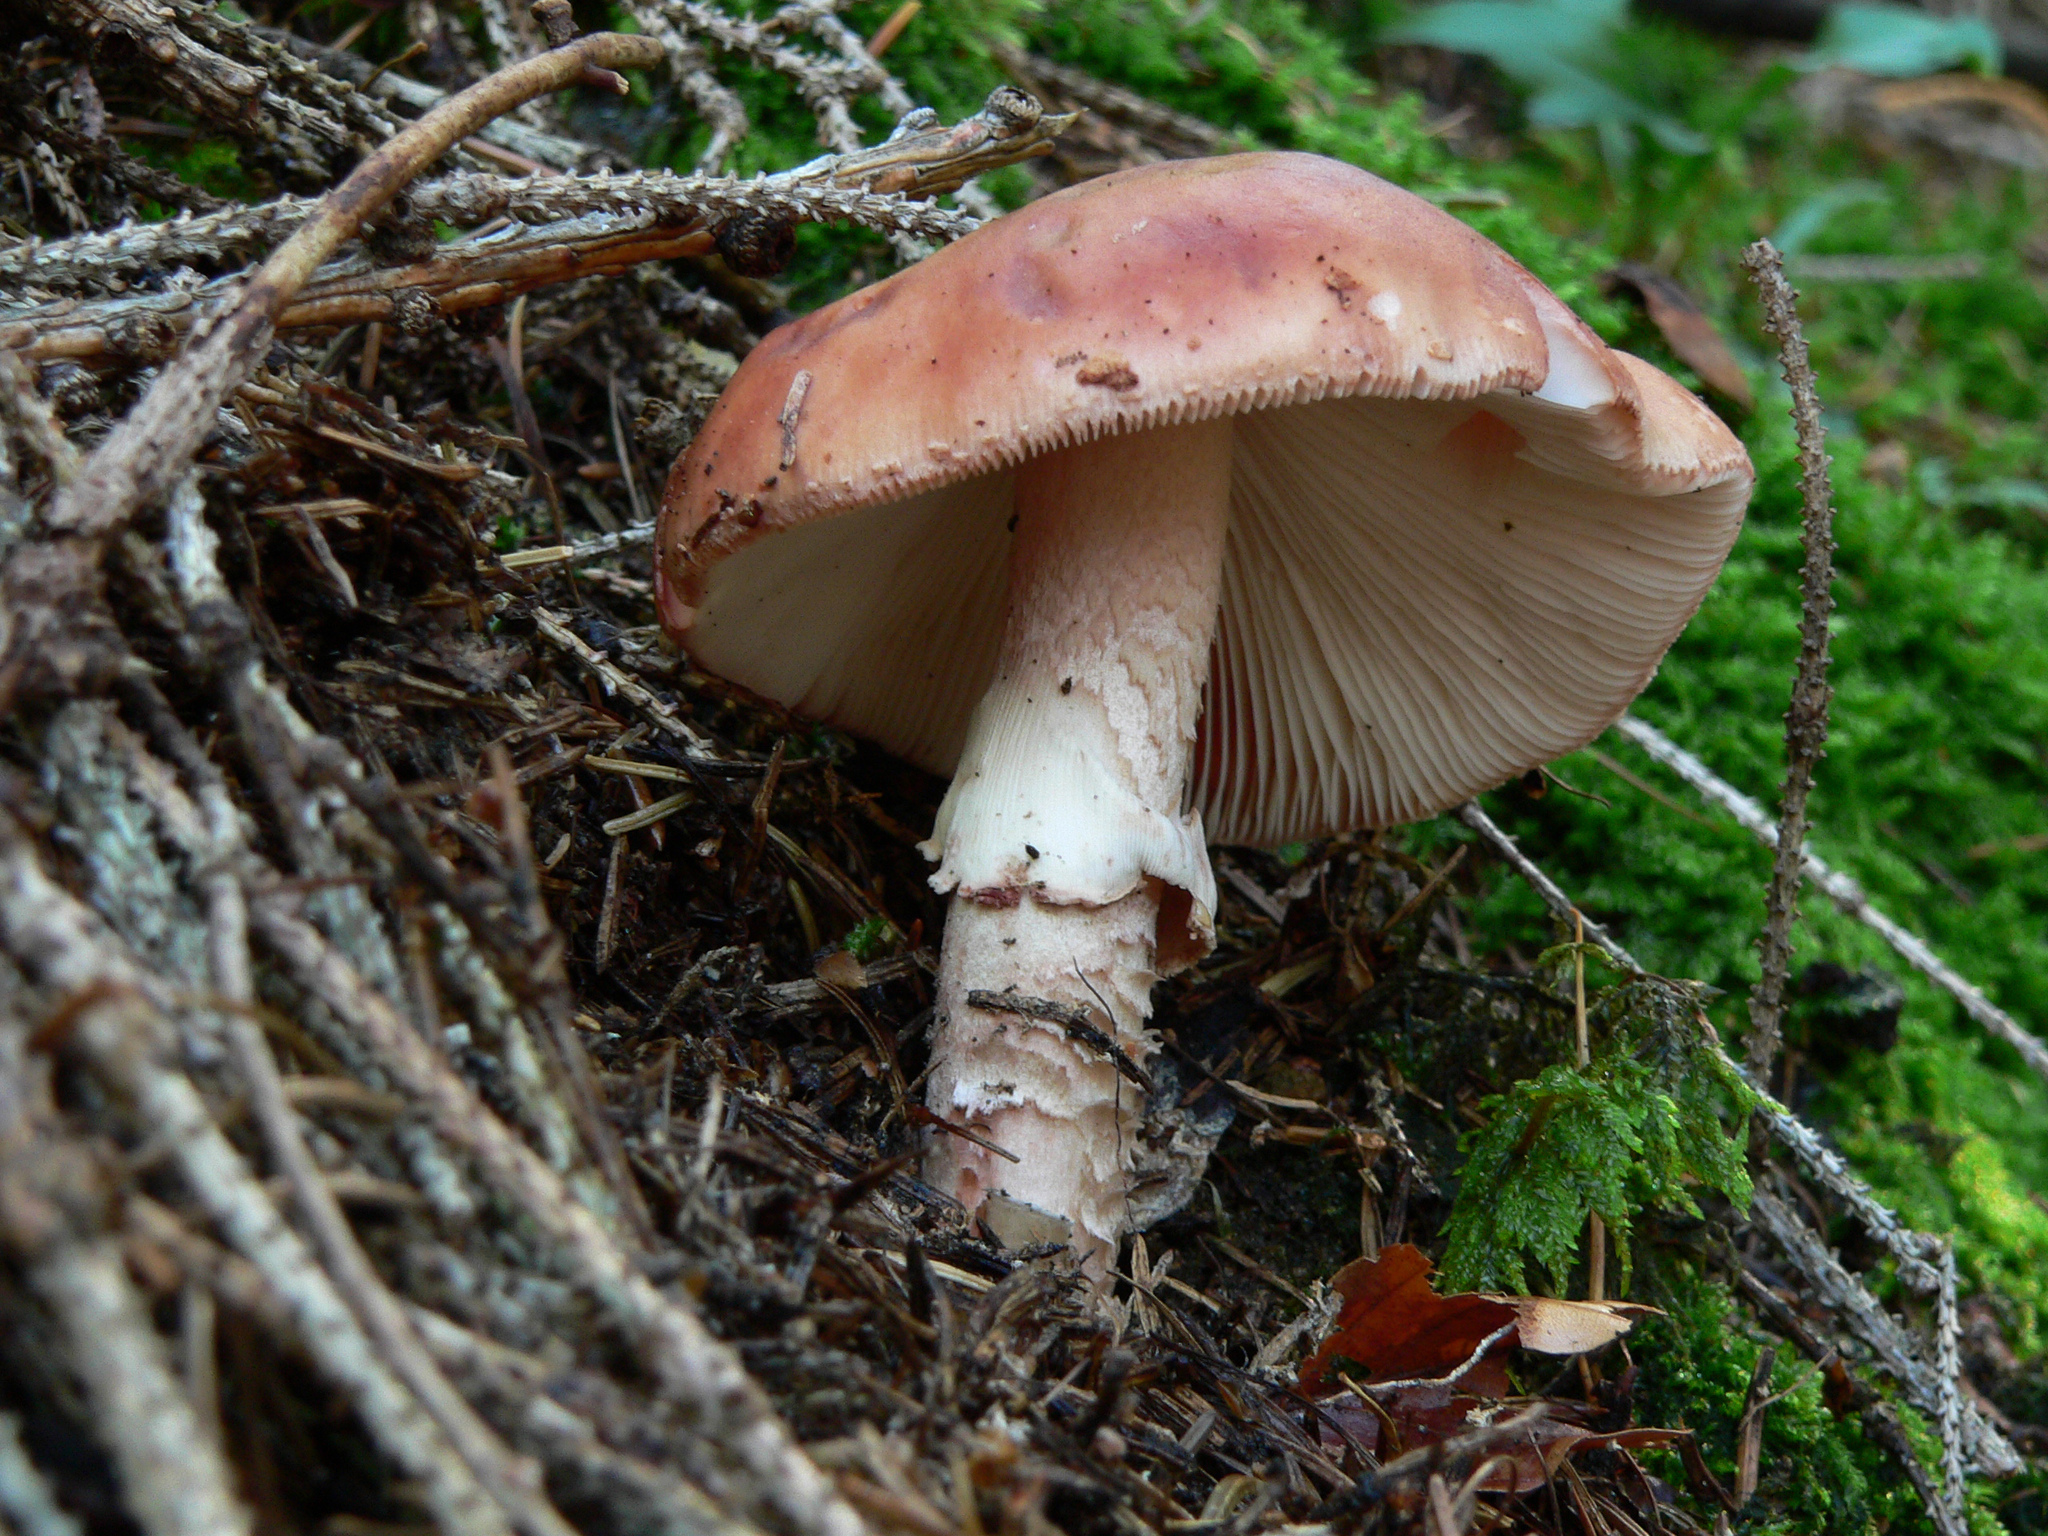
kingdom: Fungi
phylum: Basidiomycota
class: Agaricomycetes
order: Agaricales
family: Amanitaceae
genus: Amanita
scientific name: Amanita rubescens
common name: Blusher
